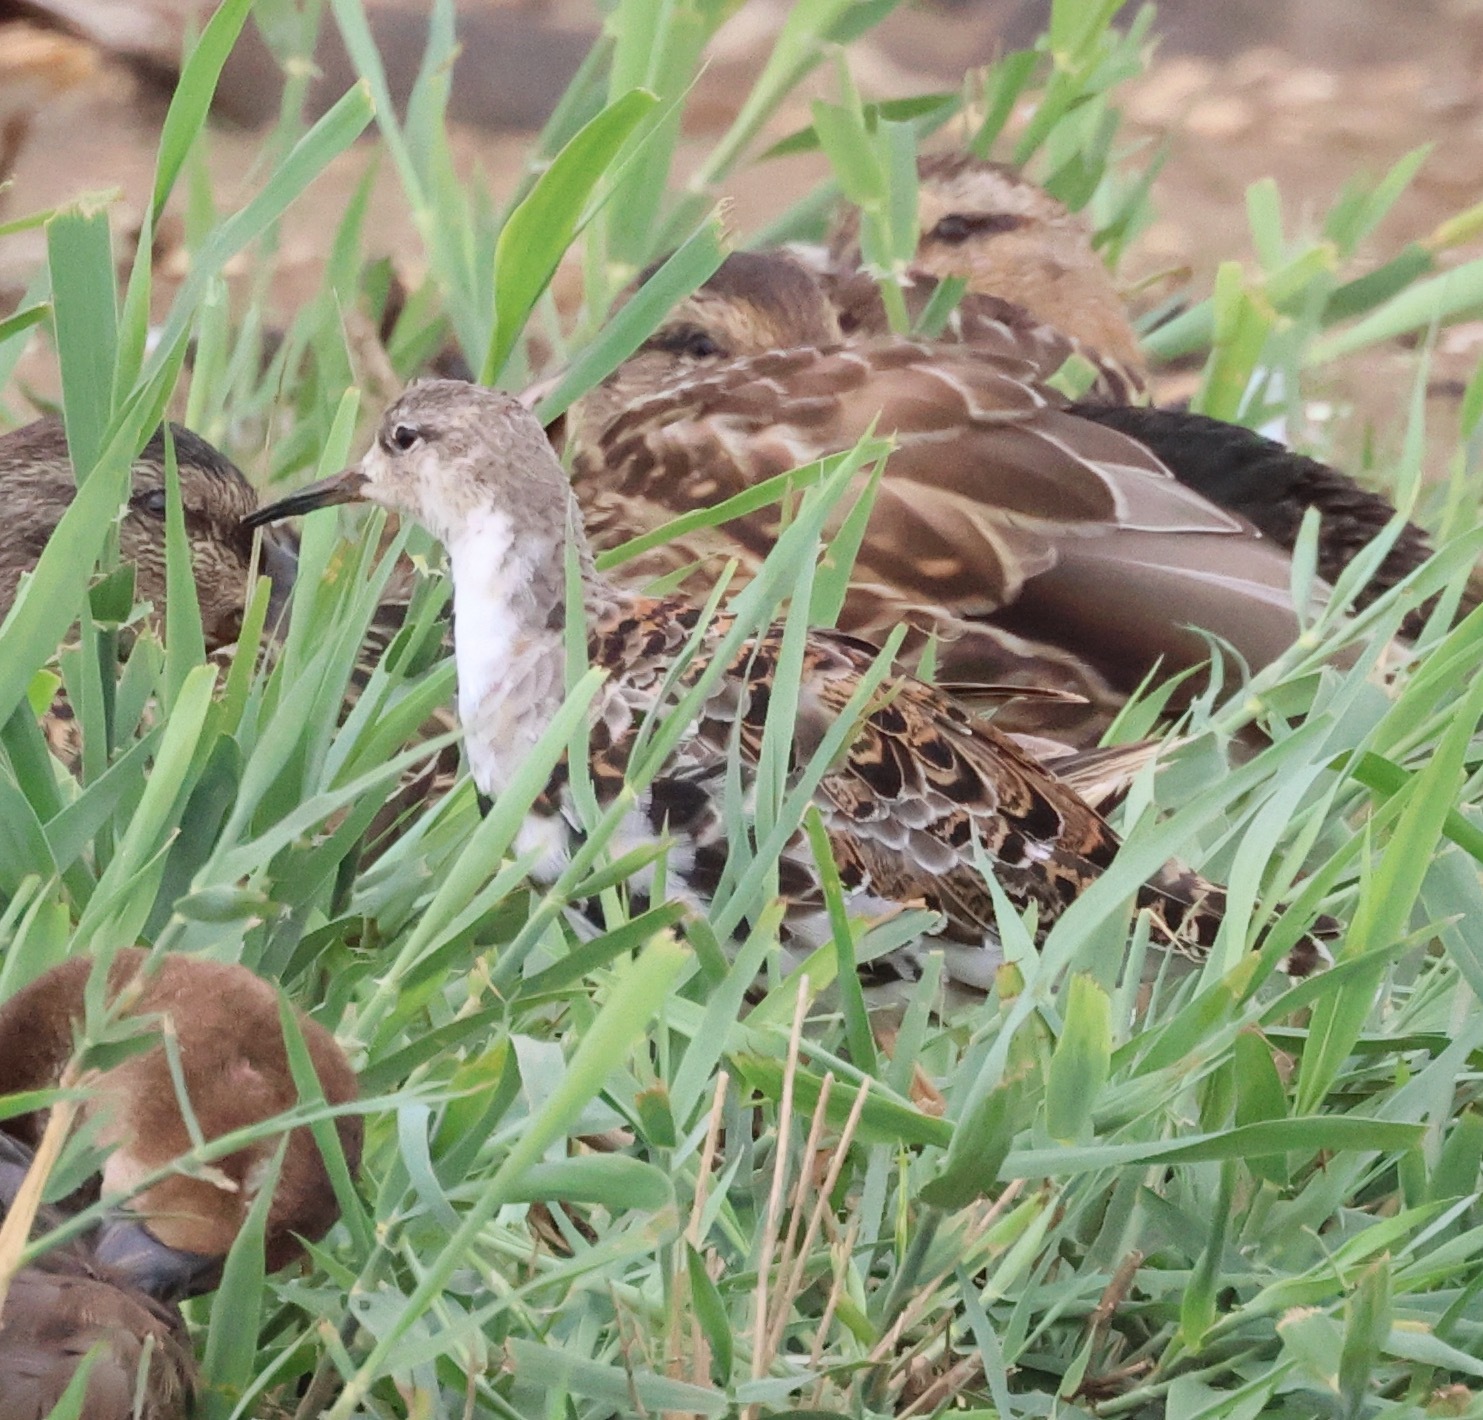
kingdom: Animalia
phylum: Chordata
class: Aves
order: Charadriiformes
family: Scolopacidae
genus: Calidris
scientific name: Calidris pugnax
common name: Ruff
